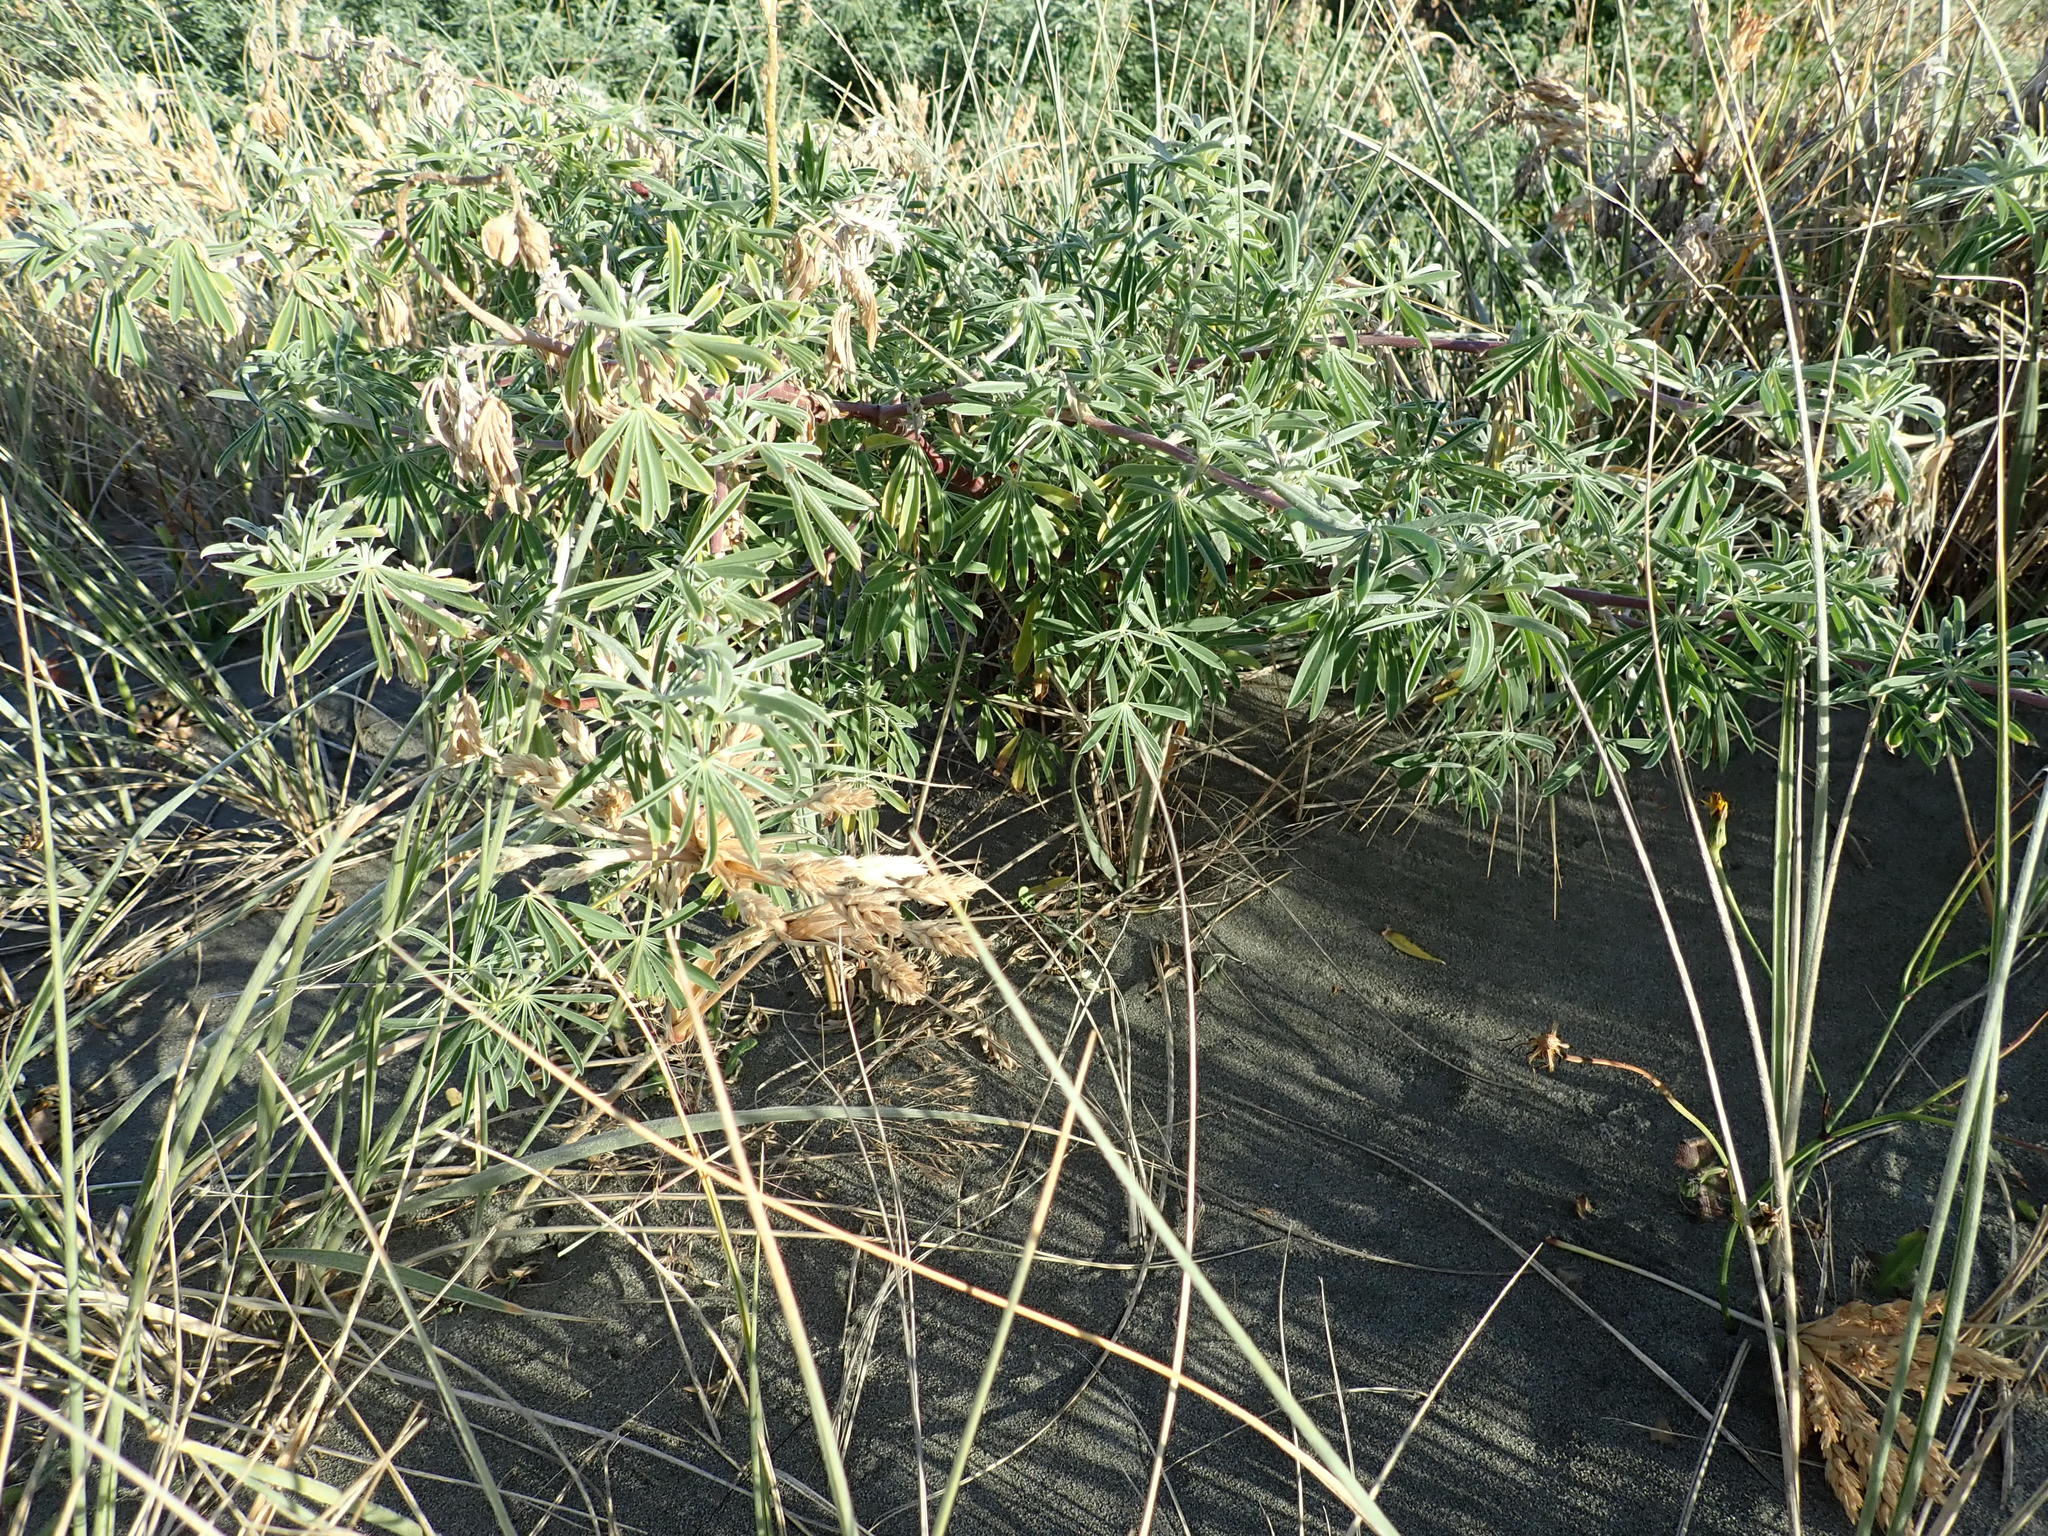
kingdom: Plantae
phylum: Tracheophyta
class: Magnoliopsida
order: Fabales
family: Fabaceae
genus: Lupinus
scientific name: Lupinus arboreus
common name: Yellow bush lupine
